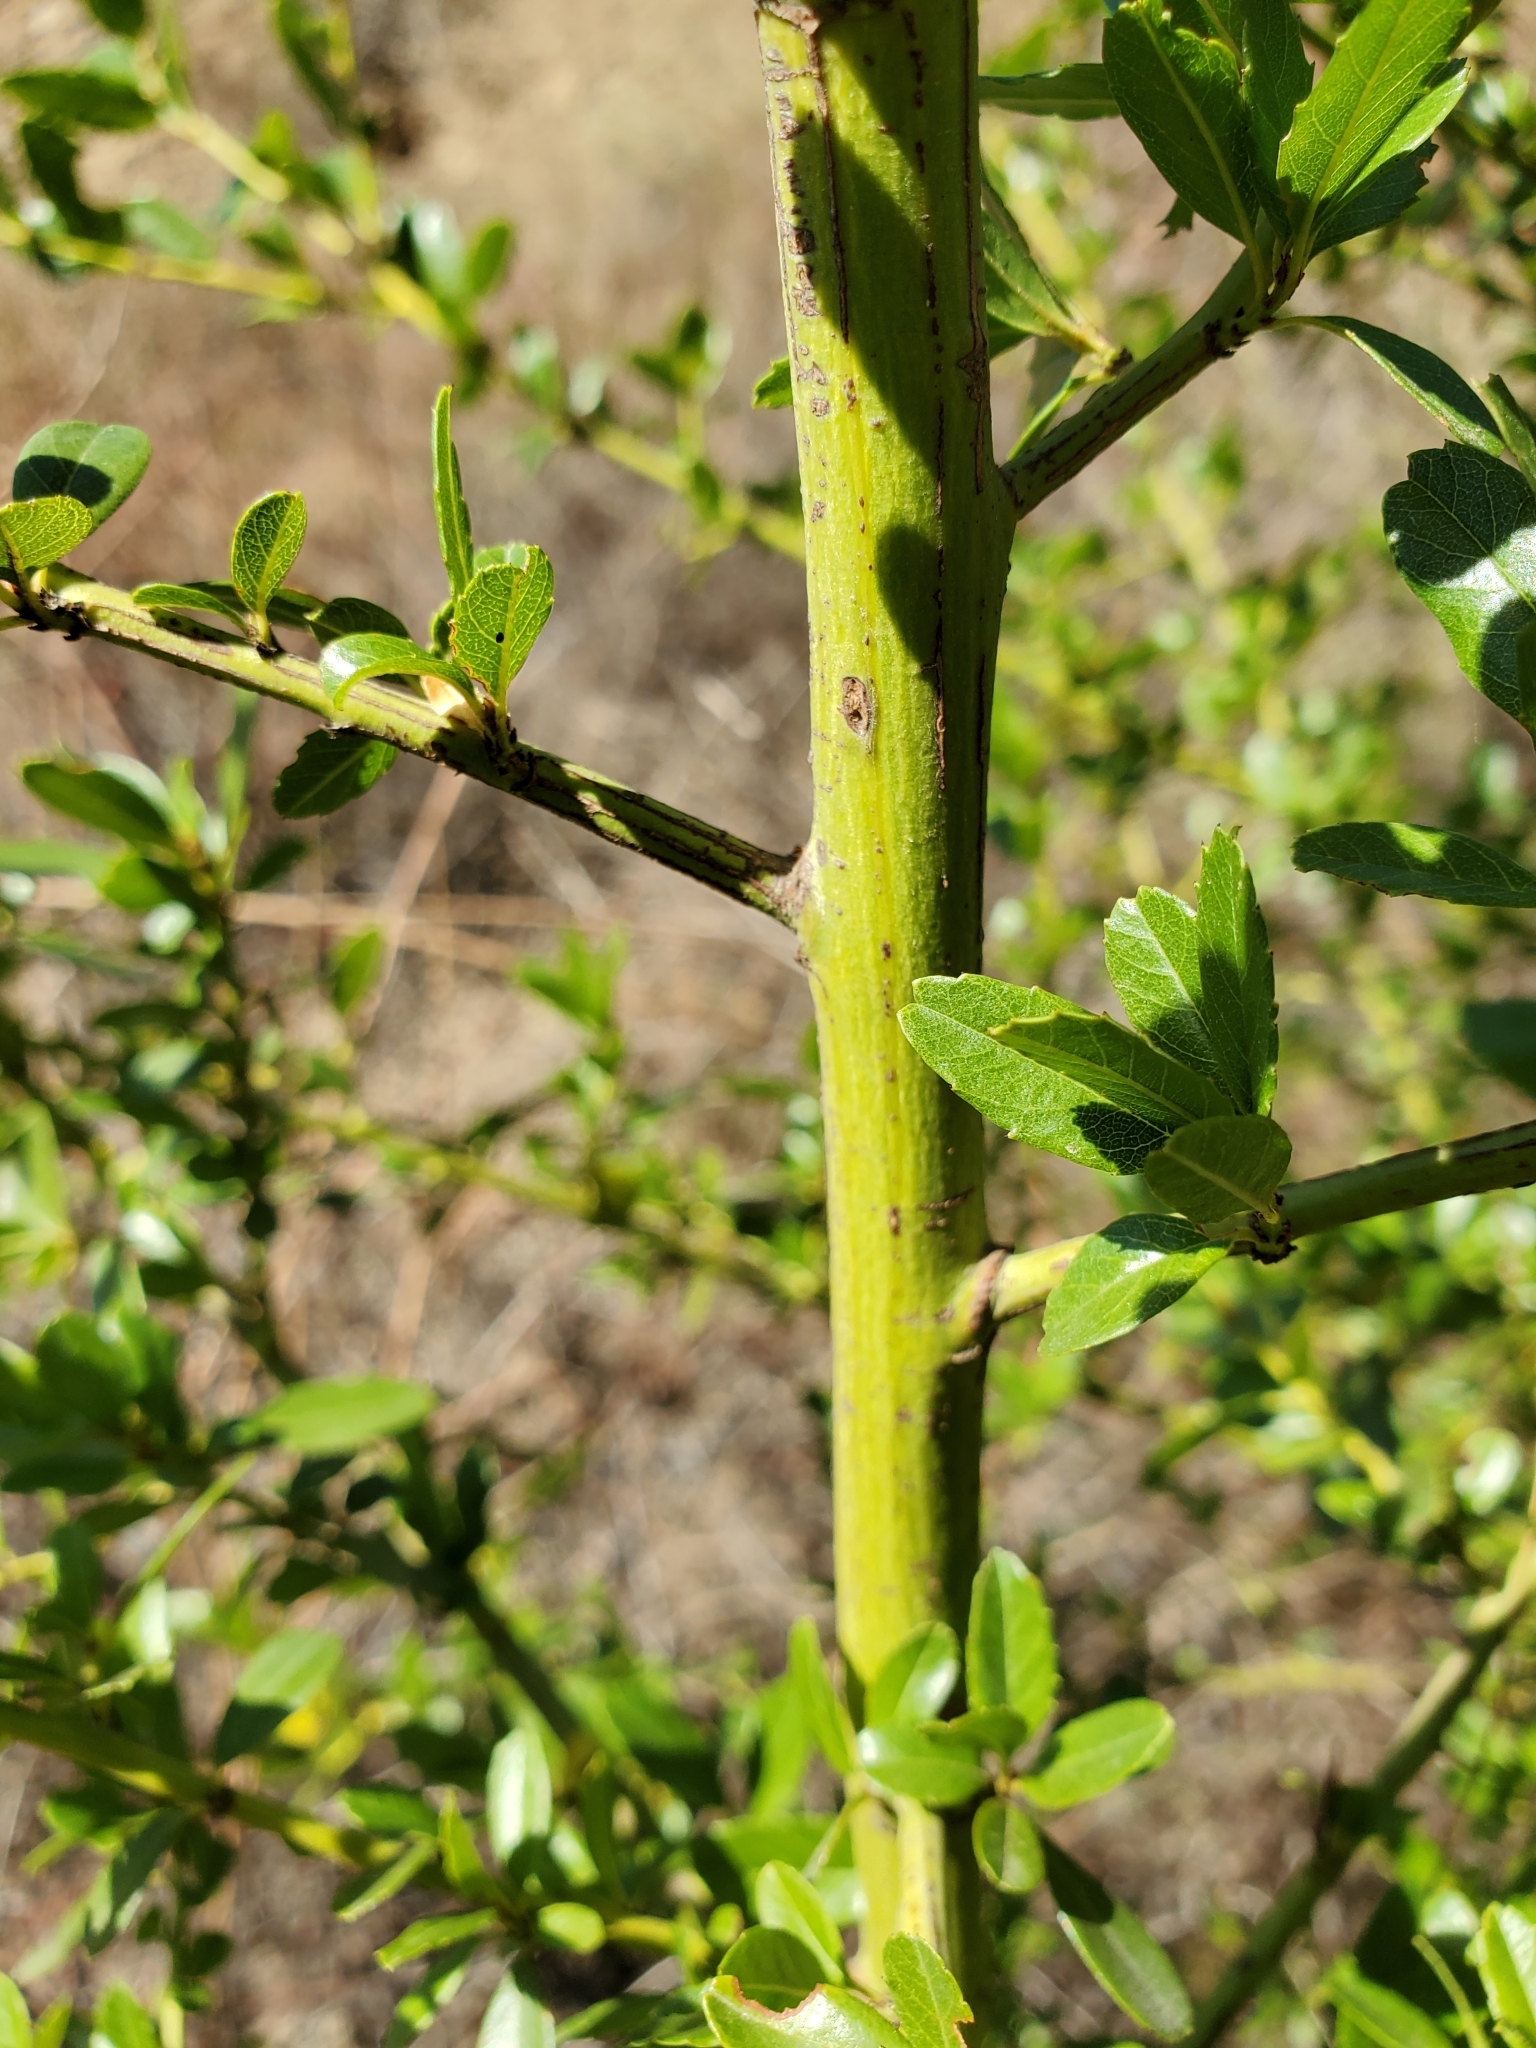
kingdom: Plantae
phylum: Tracheophyta
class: Magnoliopsida
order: Rosales
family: Rhamnaceae
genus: Ceanothus
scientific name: Ceanothus spinosus
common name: Greenbark whitethorn
